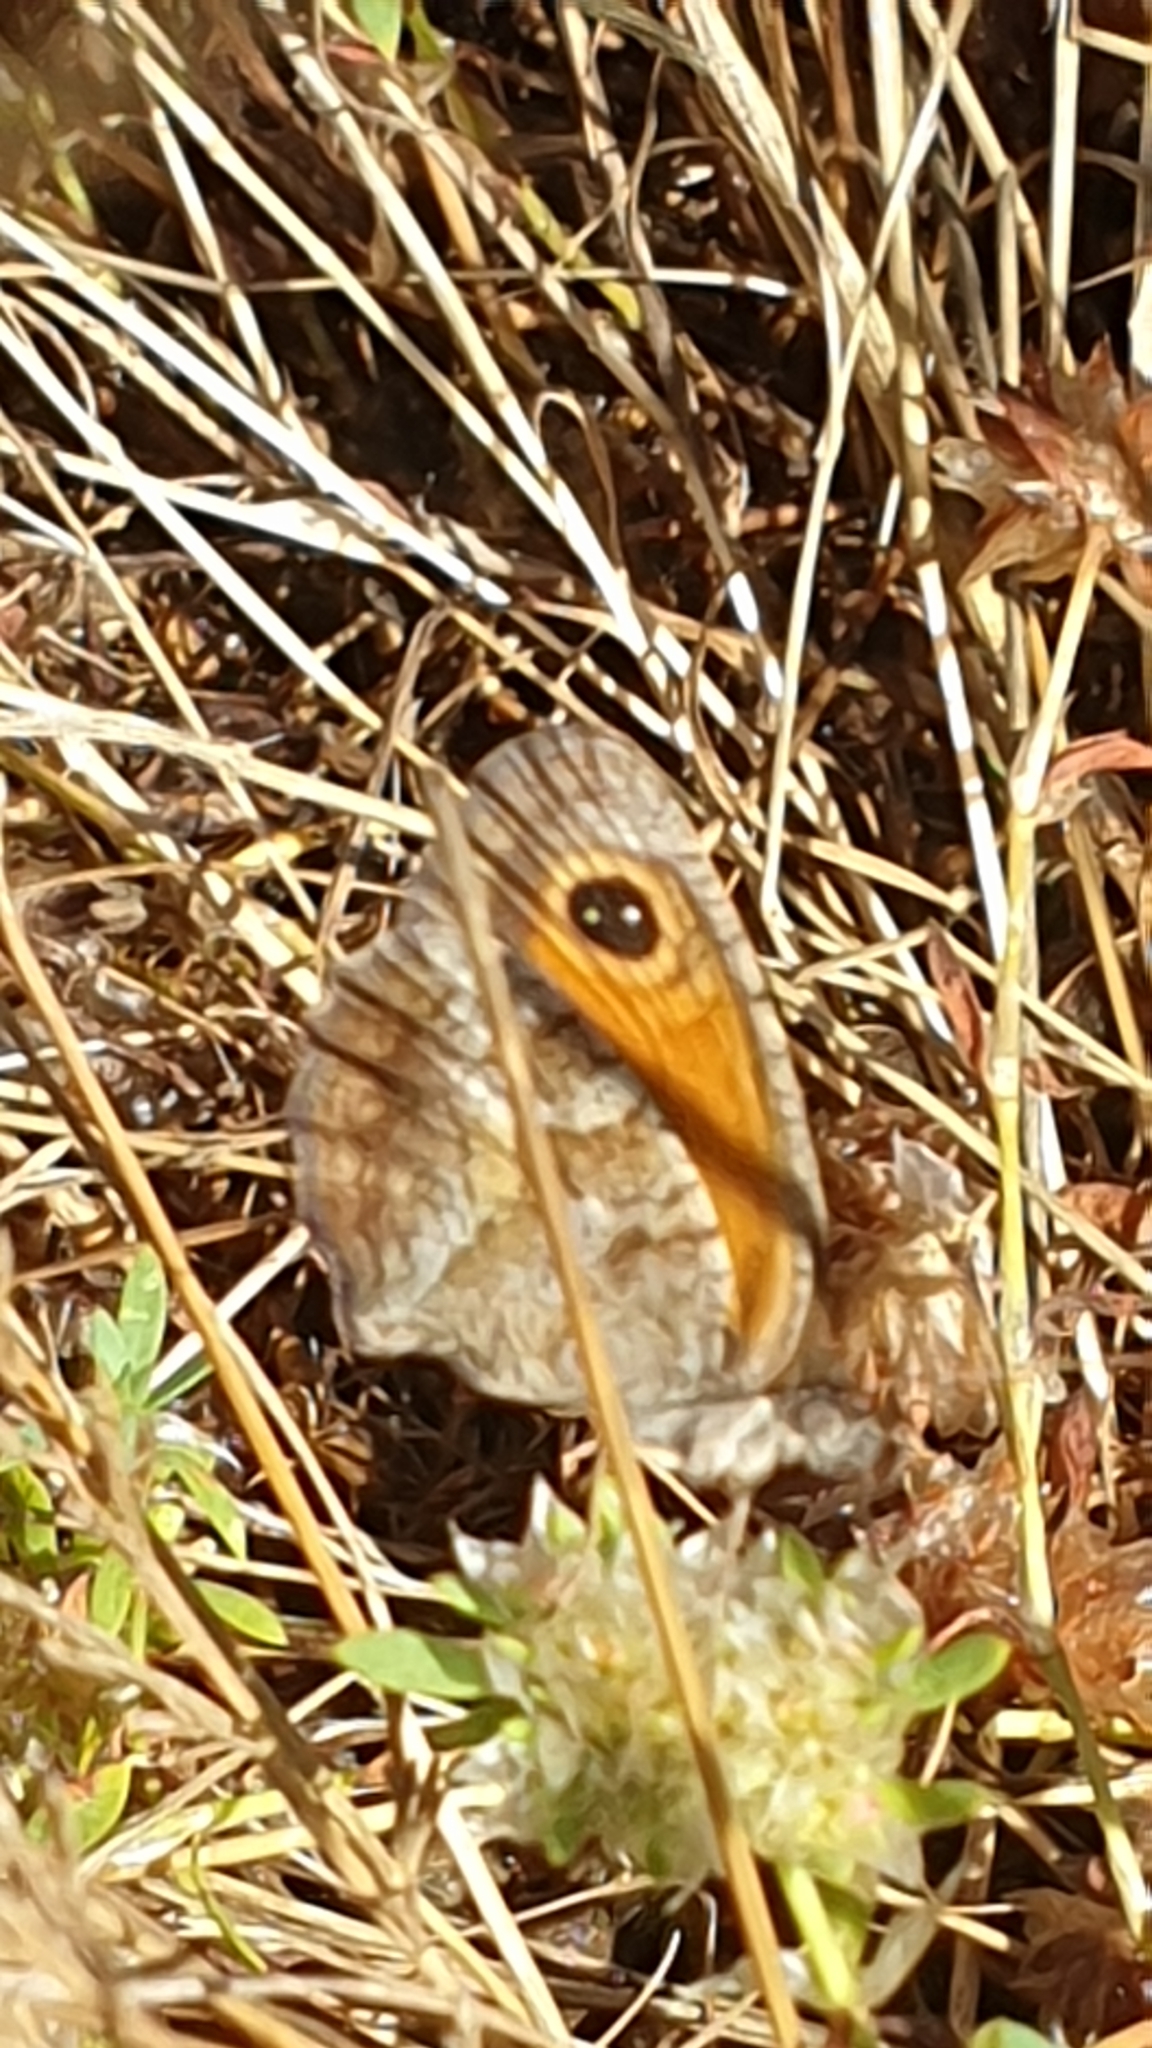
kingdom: Animalia
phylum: Arthropoda
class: Insecta
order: Lepidoptera
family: Nymphalidae
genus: Pyronia
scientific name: Pyronia cecilia
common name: Southern gatekeeper
